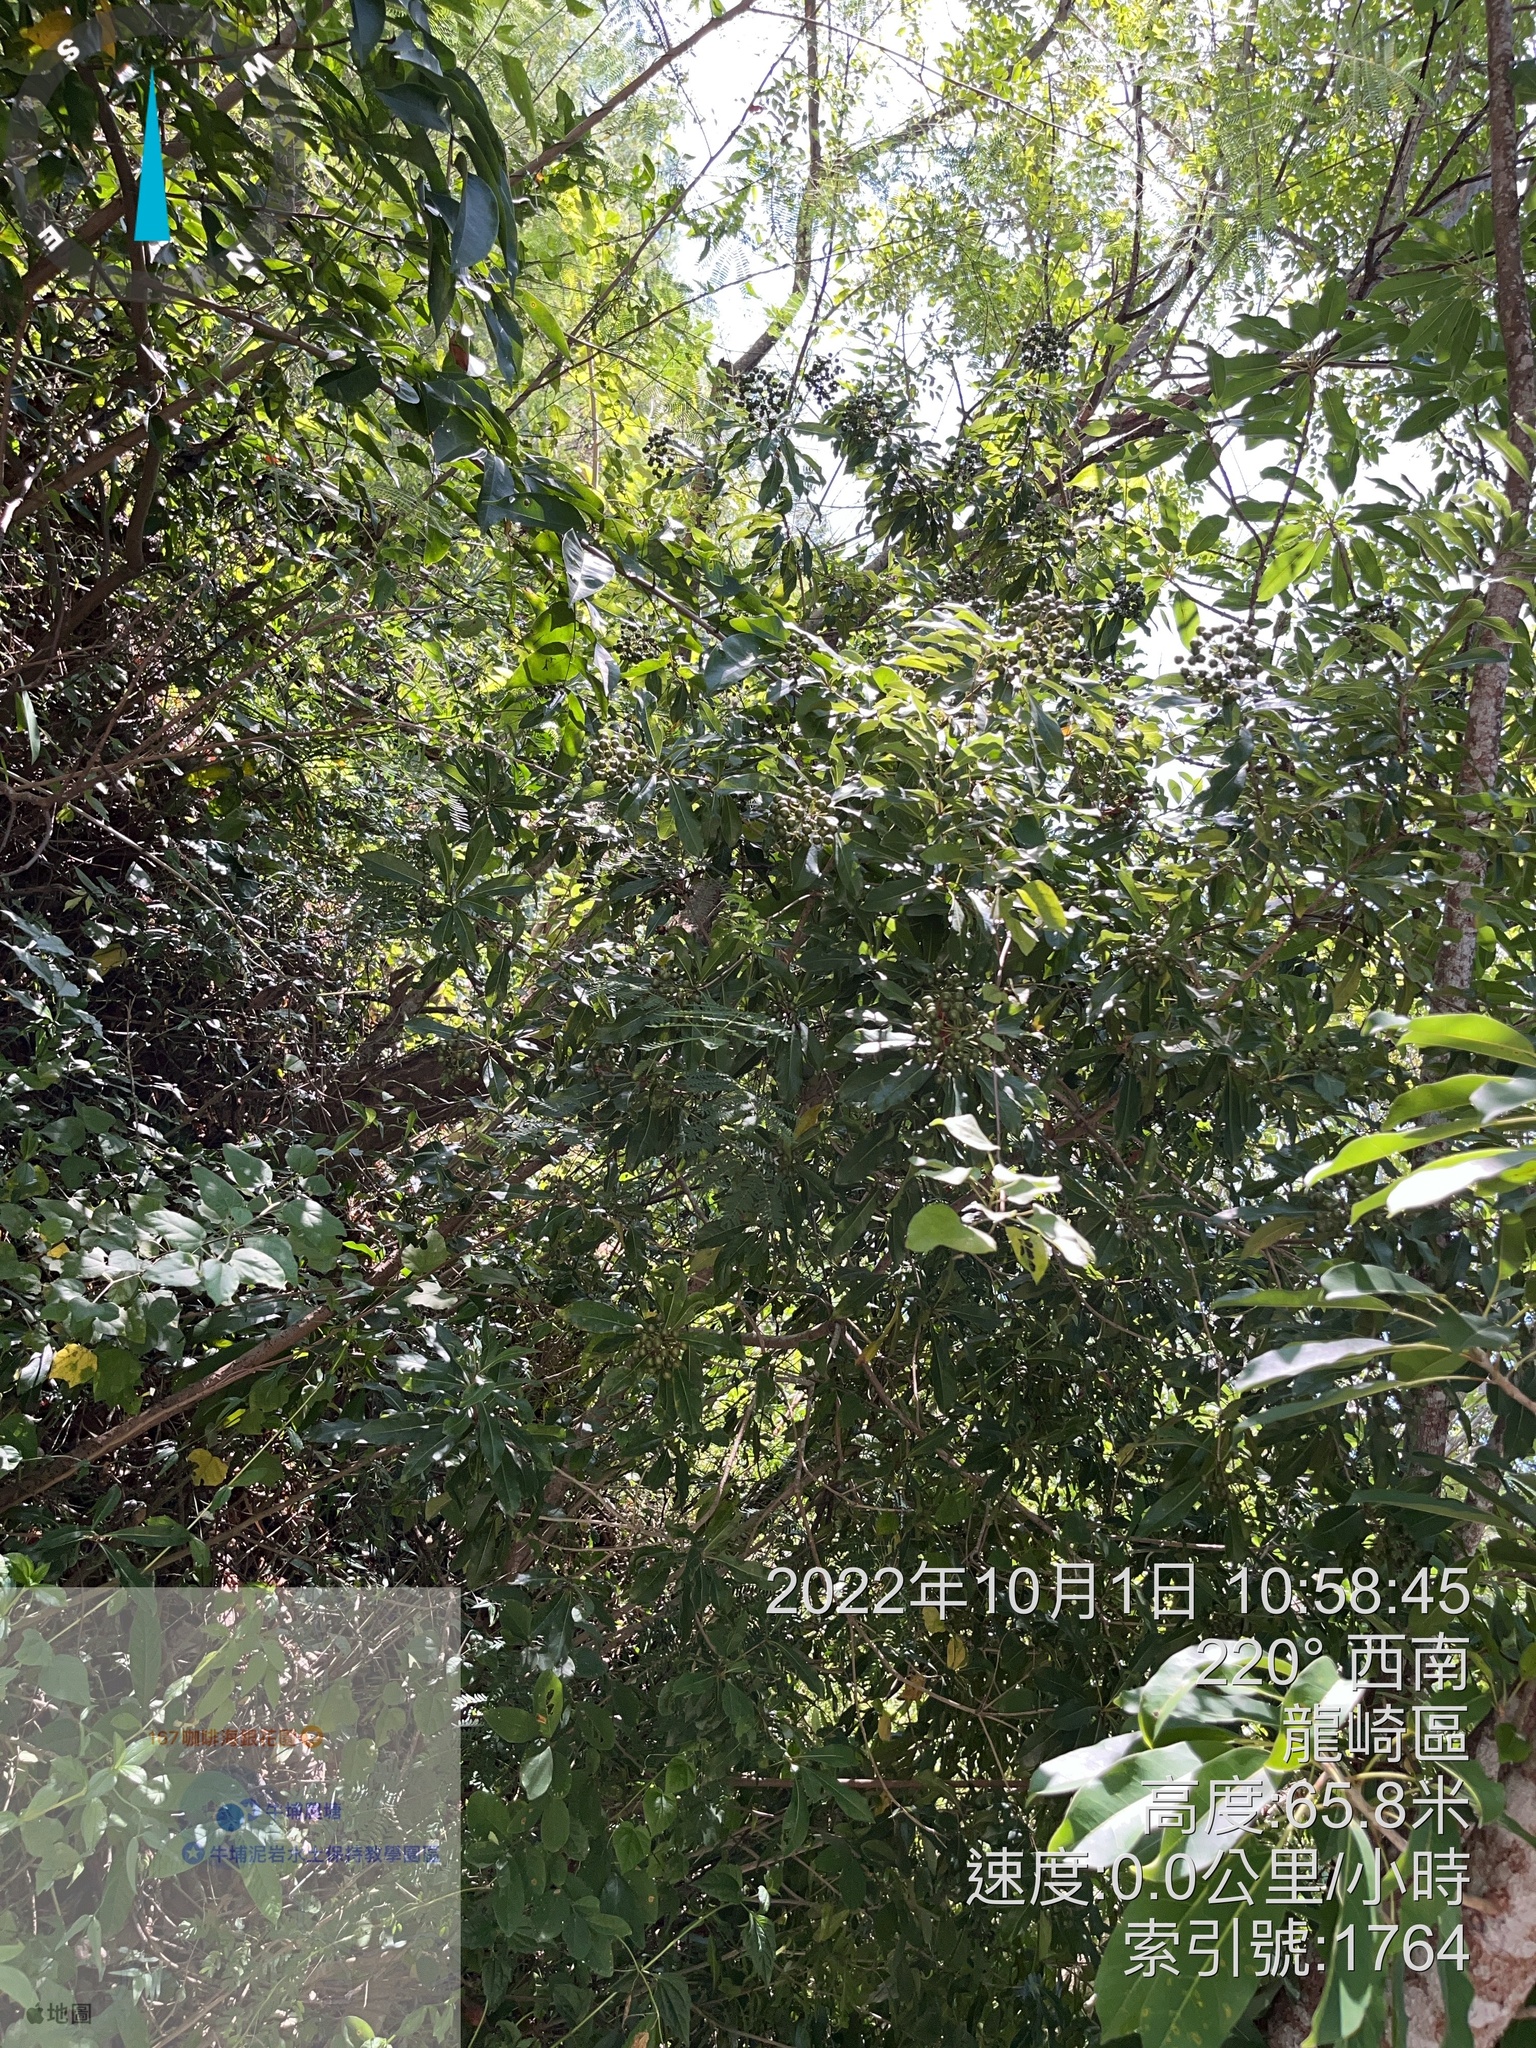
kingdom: Plantae
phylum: Tracheophyta
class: Magnoliopsida
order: Apiales
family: Araliaceae
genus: Heptapleurum
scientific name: Heptapleurum heptaphyllum
